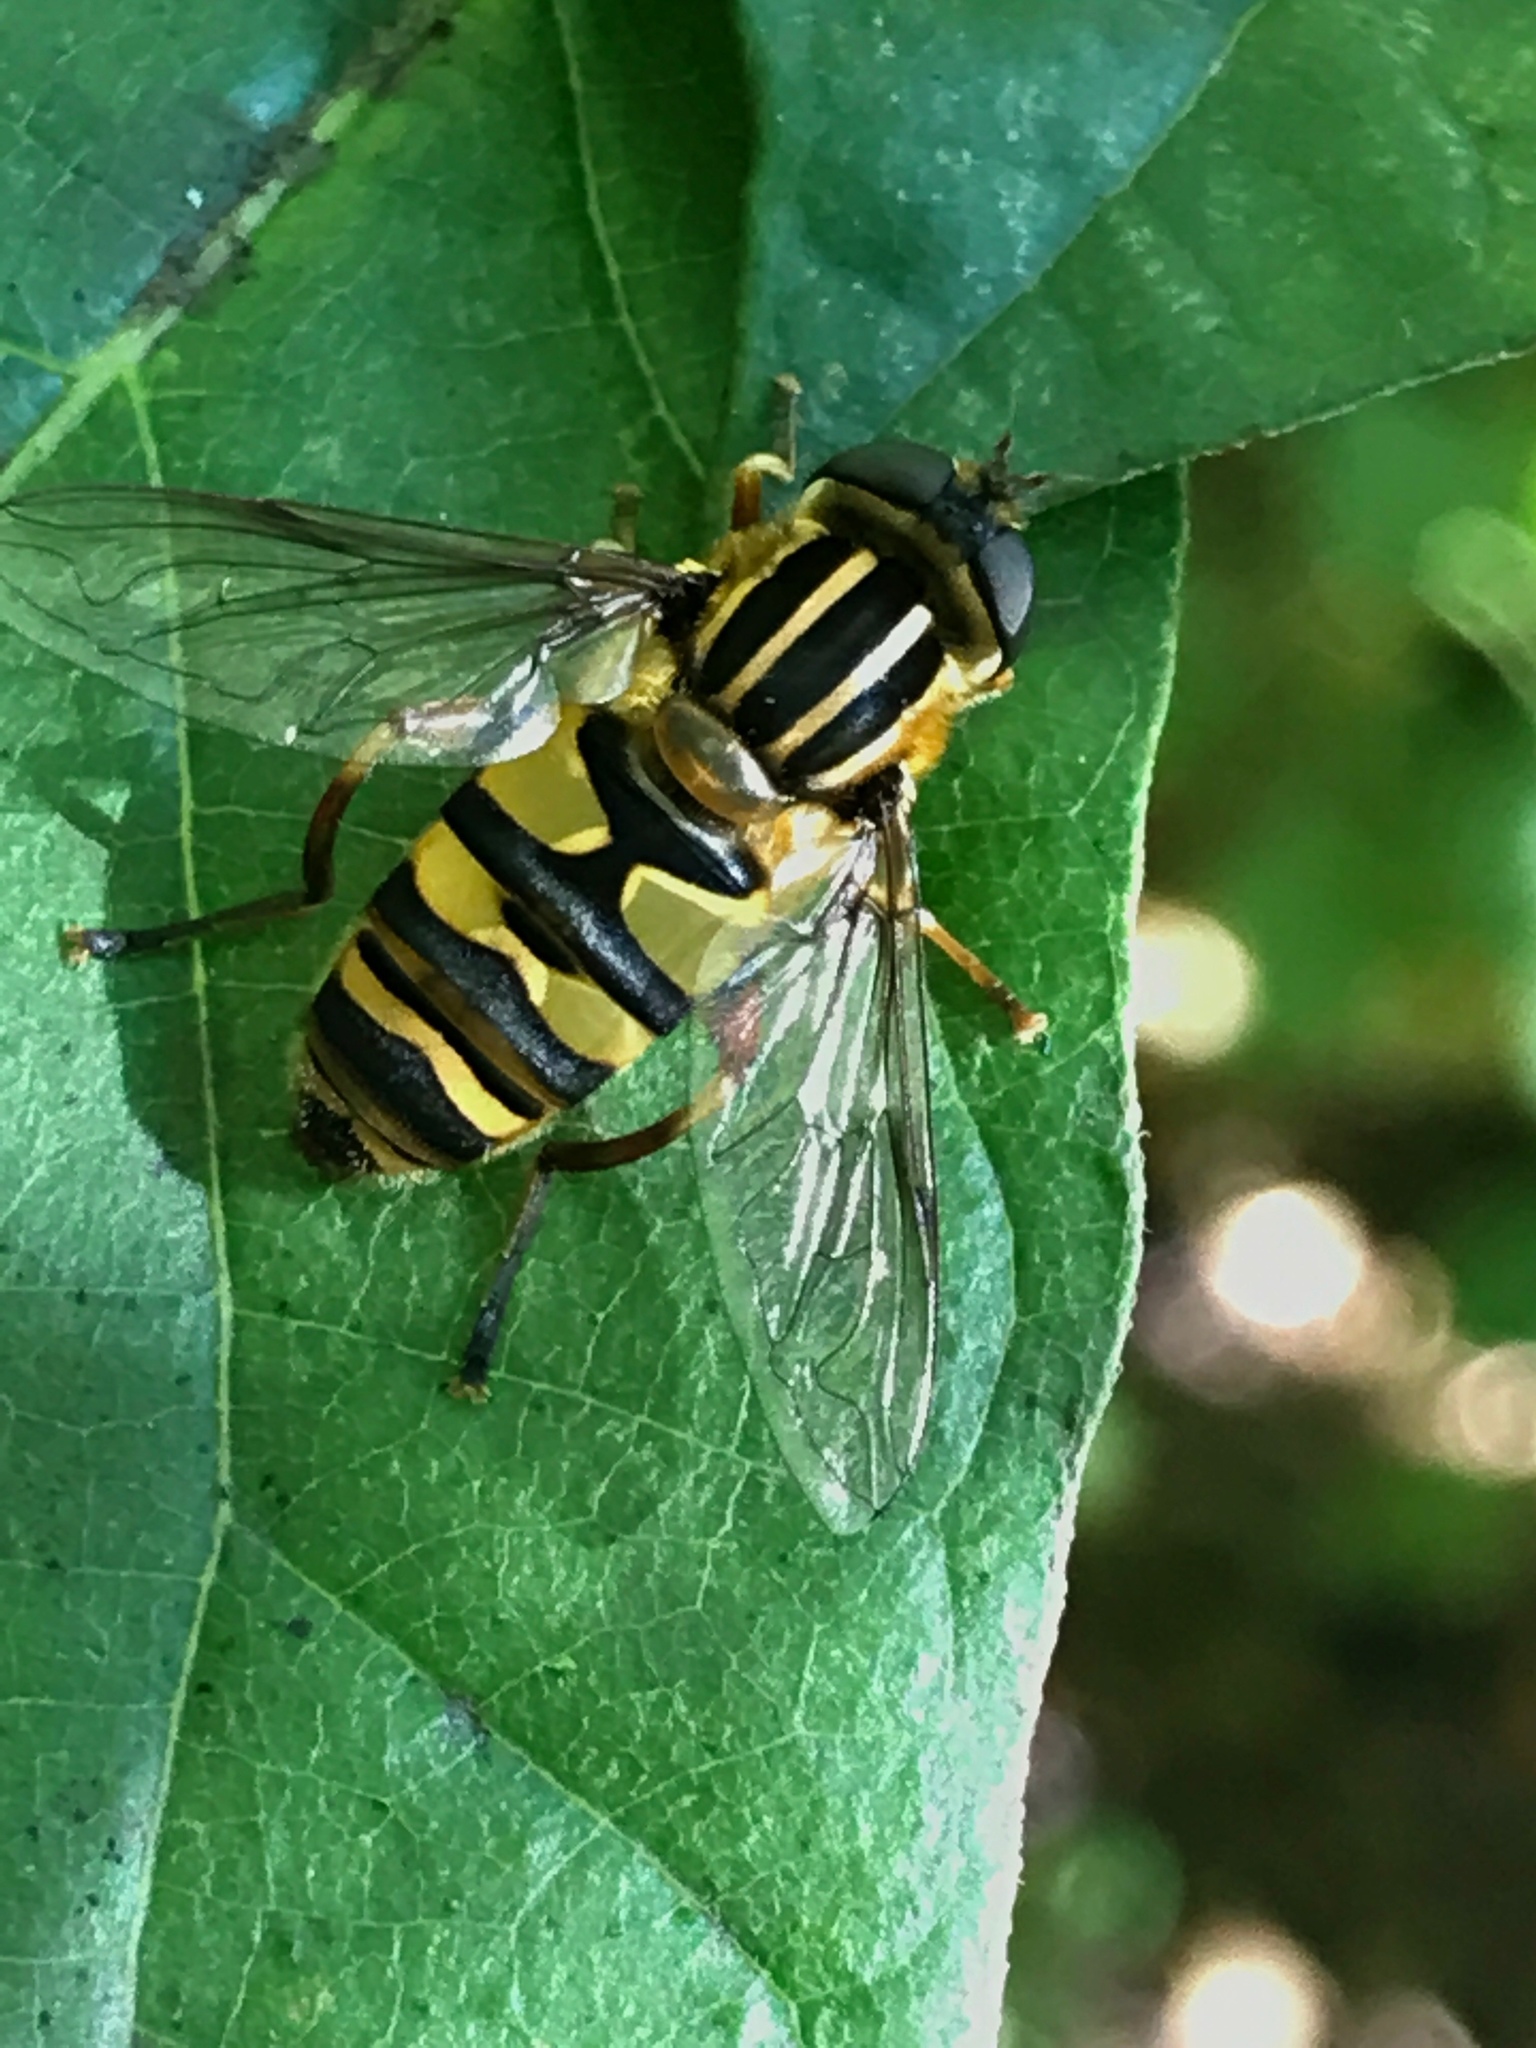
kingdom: Animalia
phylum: Arthropoda
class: Insecta
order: Diptera
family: Syrphidae
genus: Helophilus
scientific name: Helophilus fasciatus
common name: Narrow-headed marsh fly
